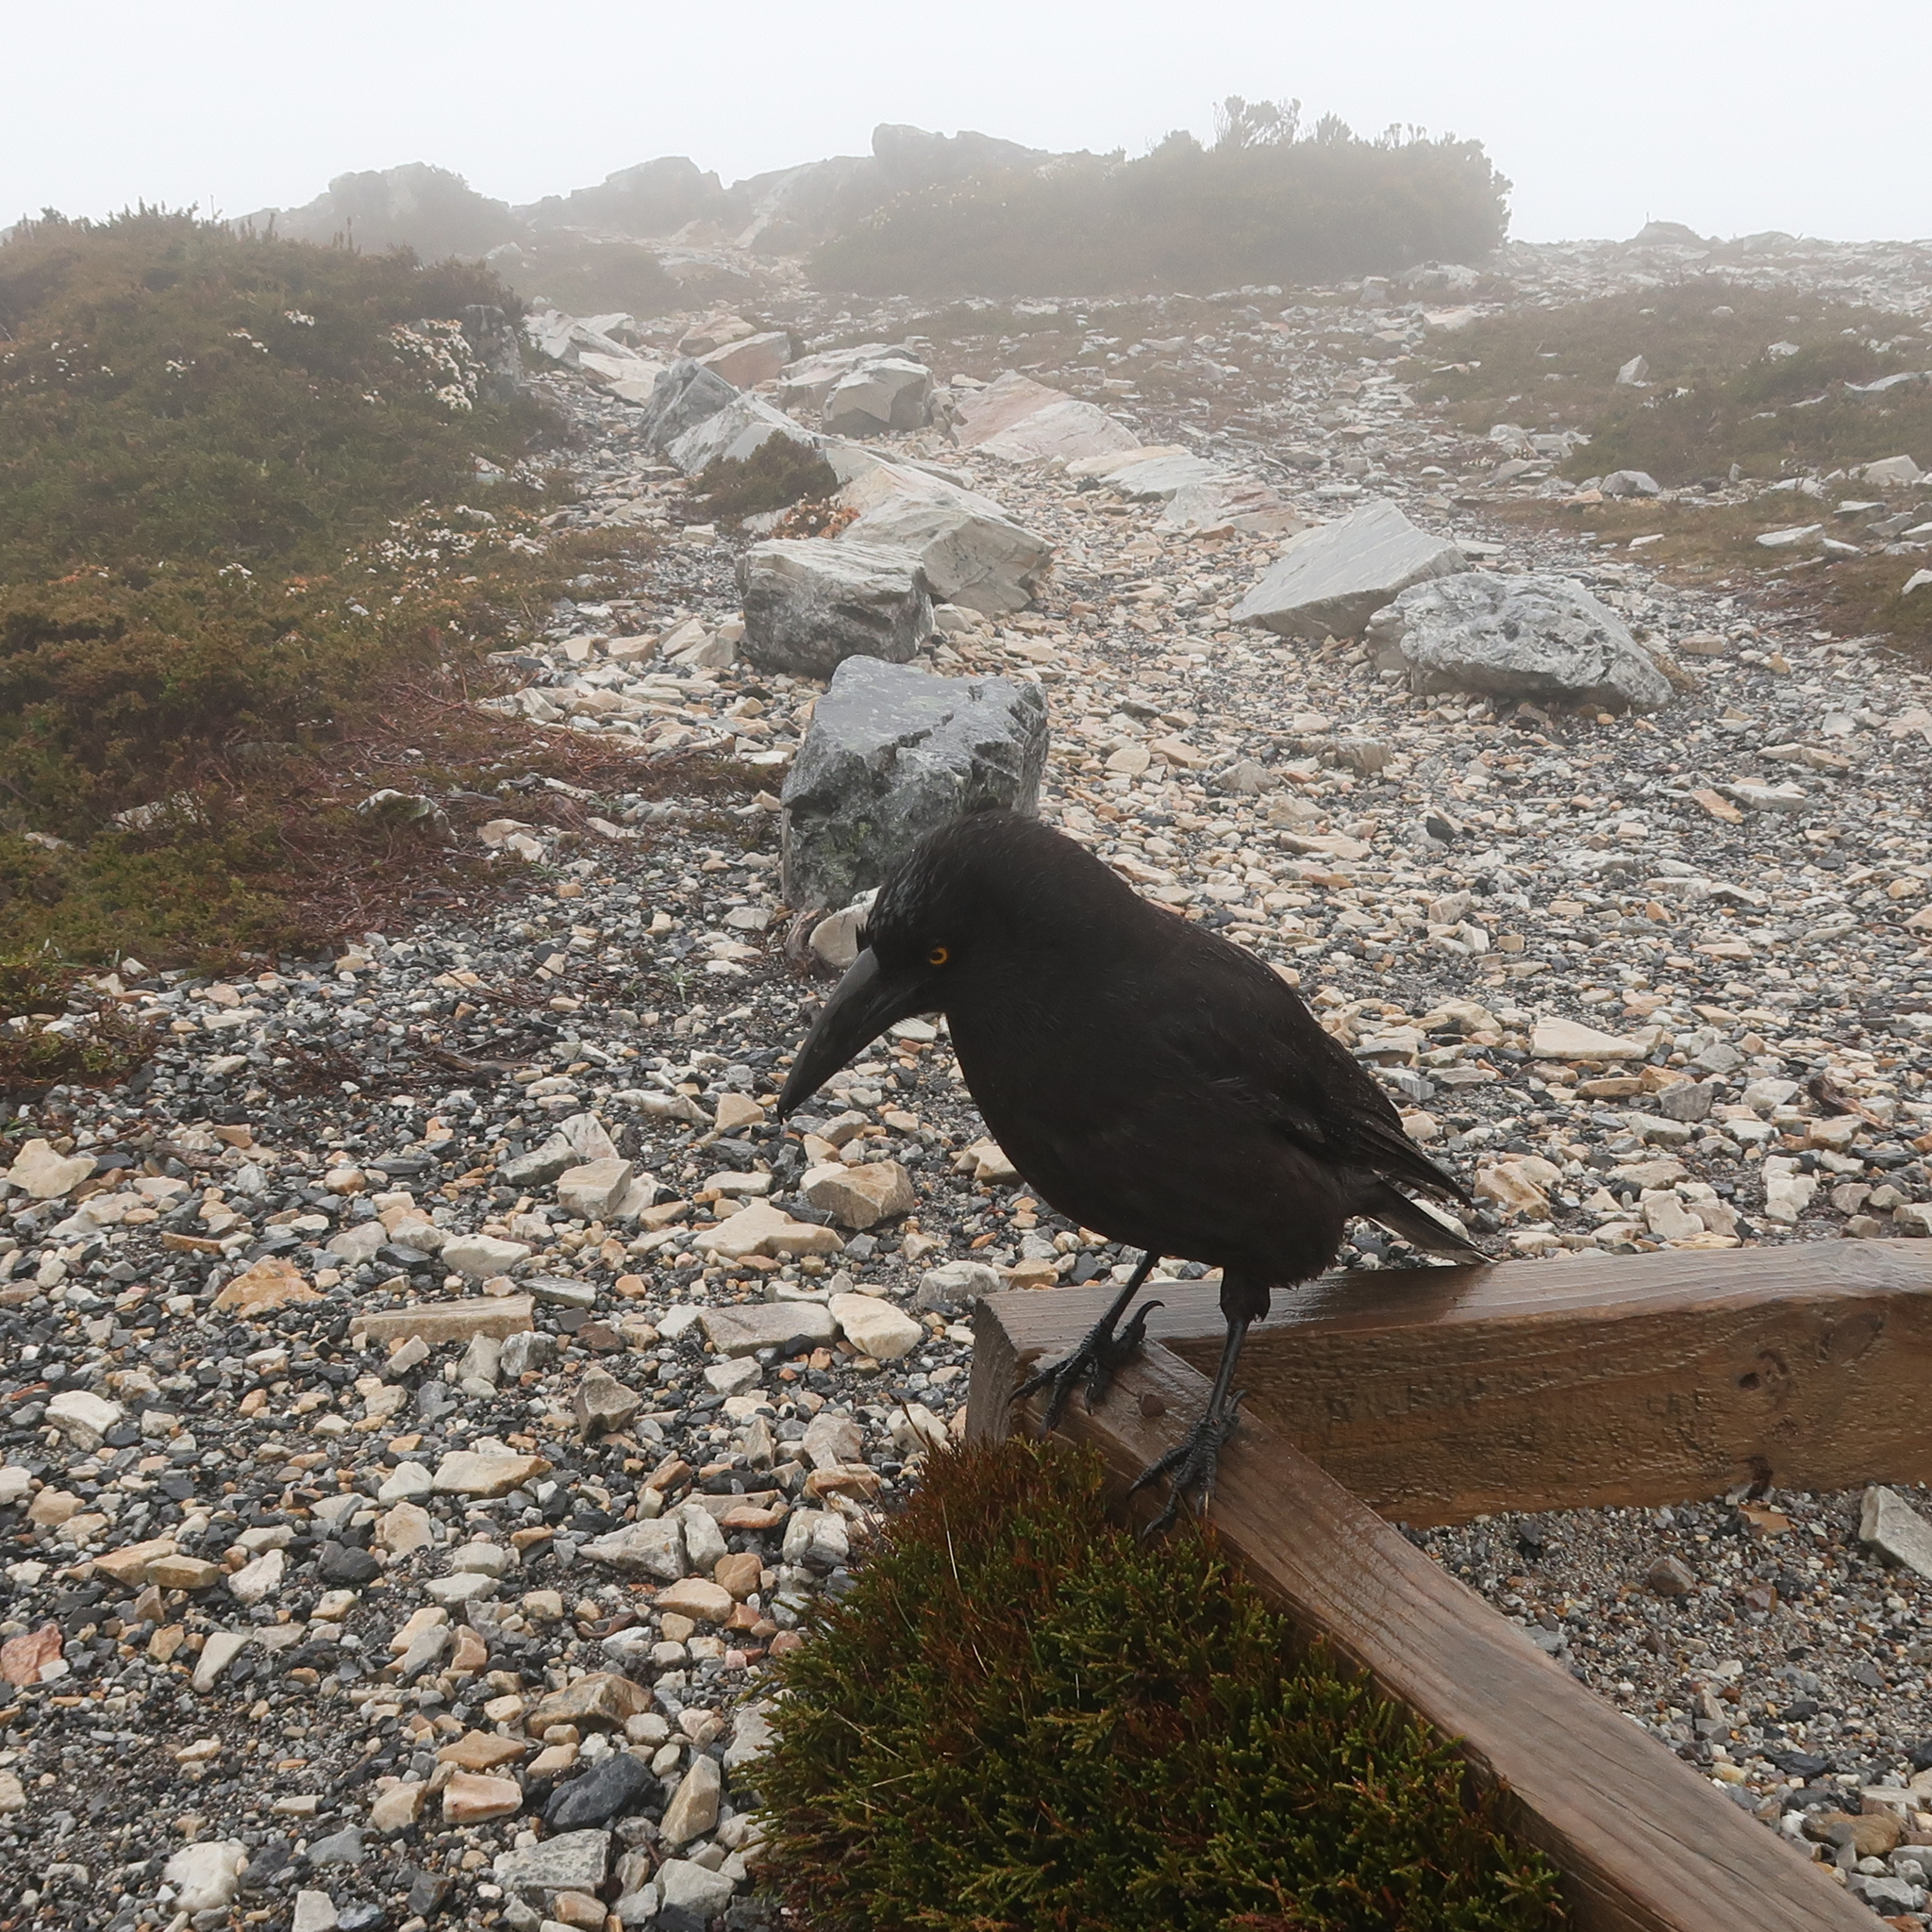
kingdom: Animalia
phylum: Chordata
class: Aves
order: Passeriformes
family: Cracticidae
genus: Strepera
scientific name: Strepera fuliginosa
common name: Black currawong
